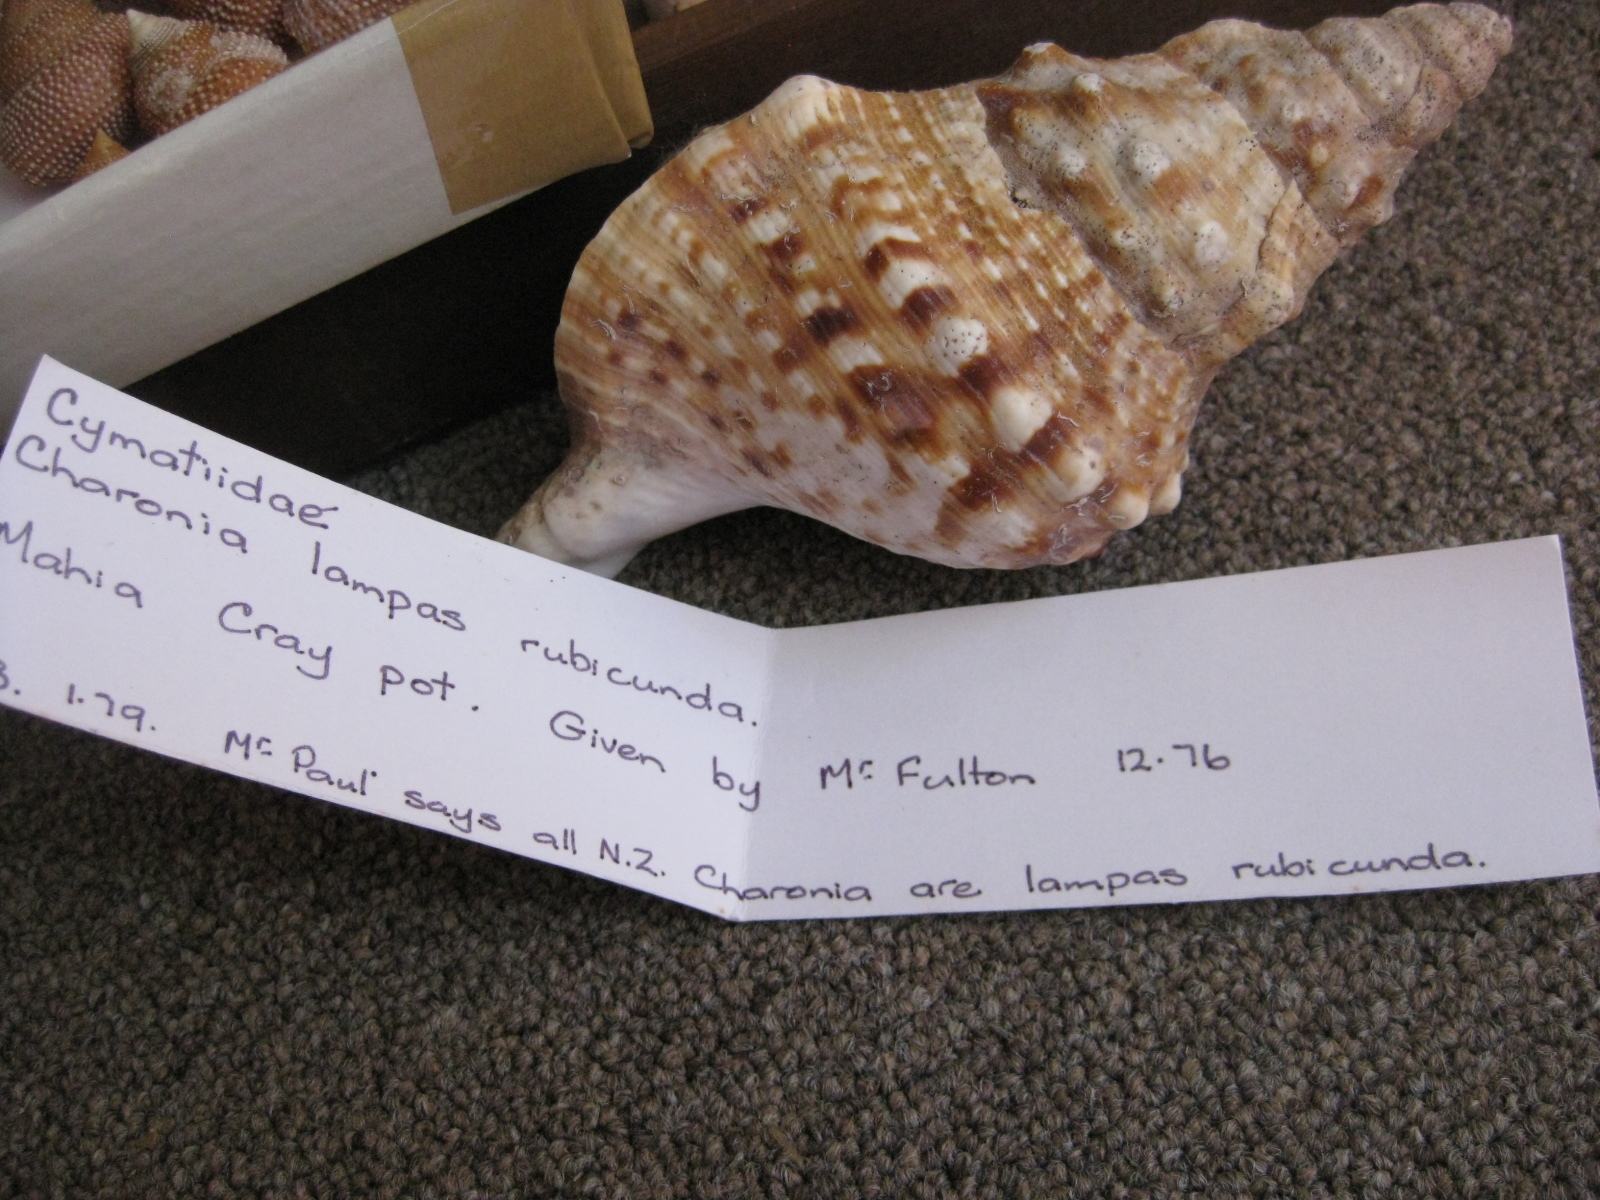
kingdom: Animalia
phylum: Mollusca
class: Gastropoda
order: Littorinimorpha
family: Charoniidae
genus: Charonia
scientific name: Charonia lampas
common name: Knobbed triton
